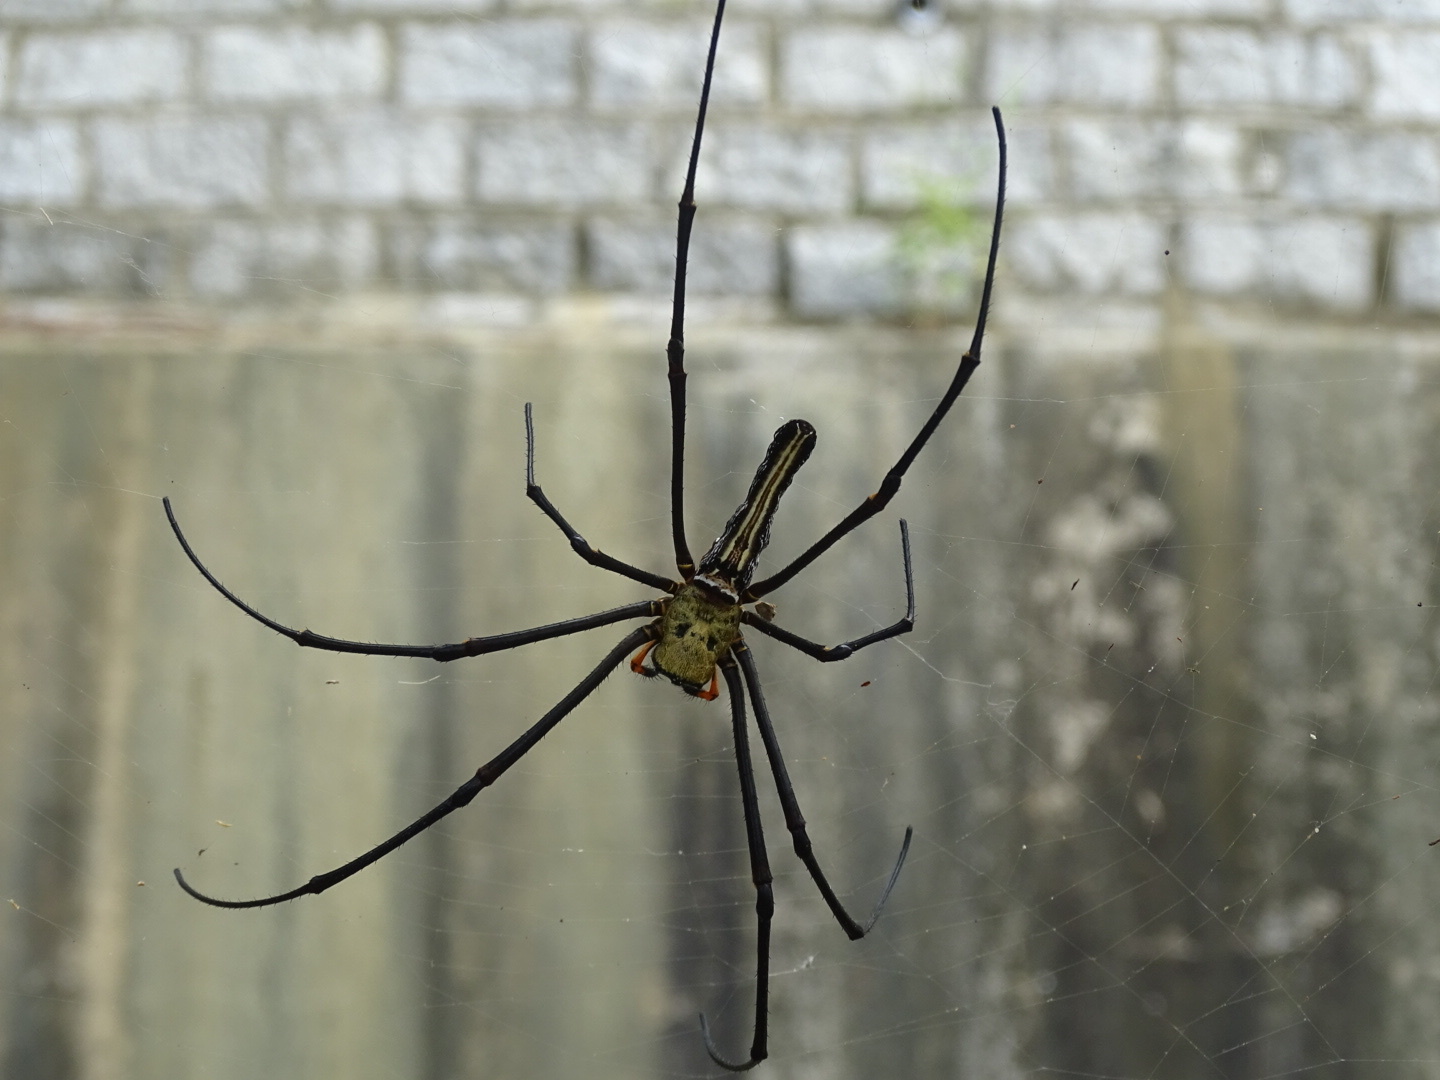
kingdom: Animalia
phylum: Arthropoda
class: Arachnida
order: Araneae
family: Araneidae
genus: Nephila
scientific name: Nephila pilipes
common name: Giant golden orb weaver
